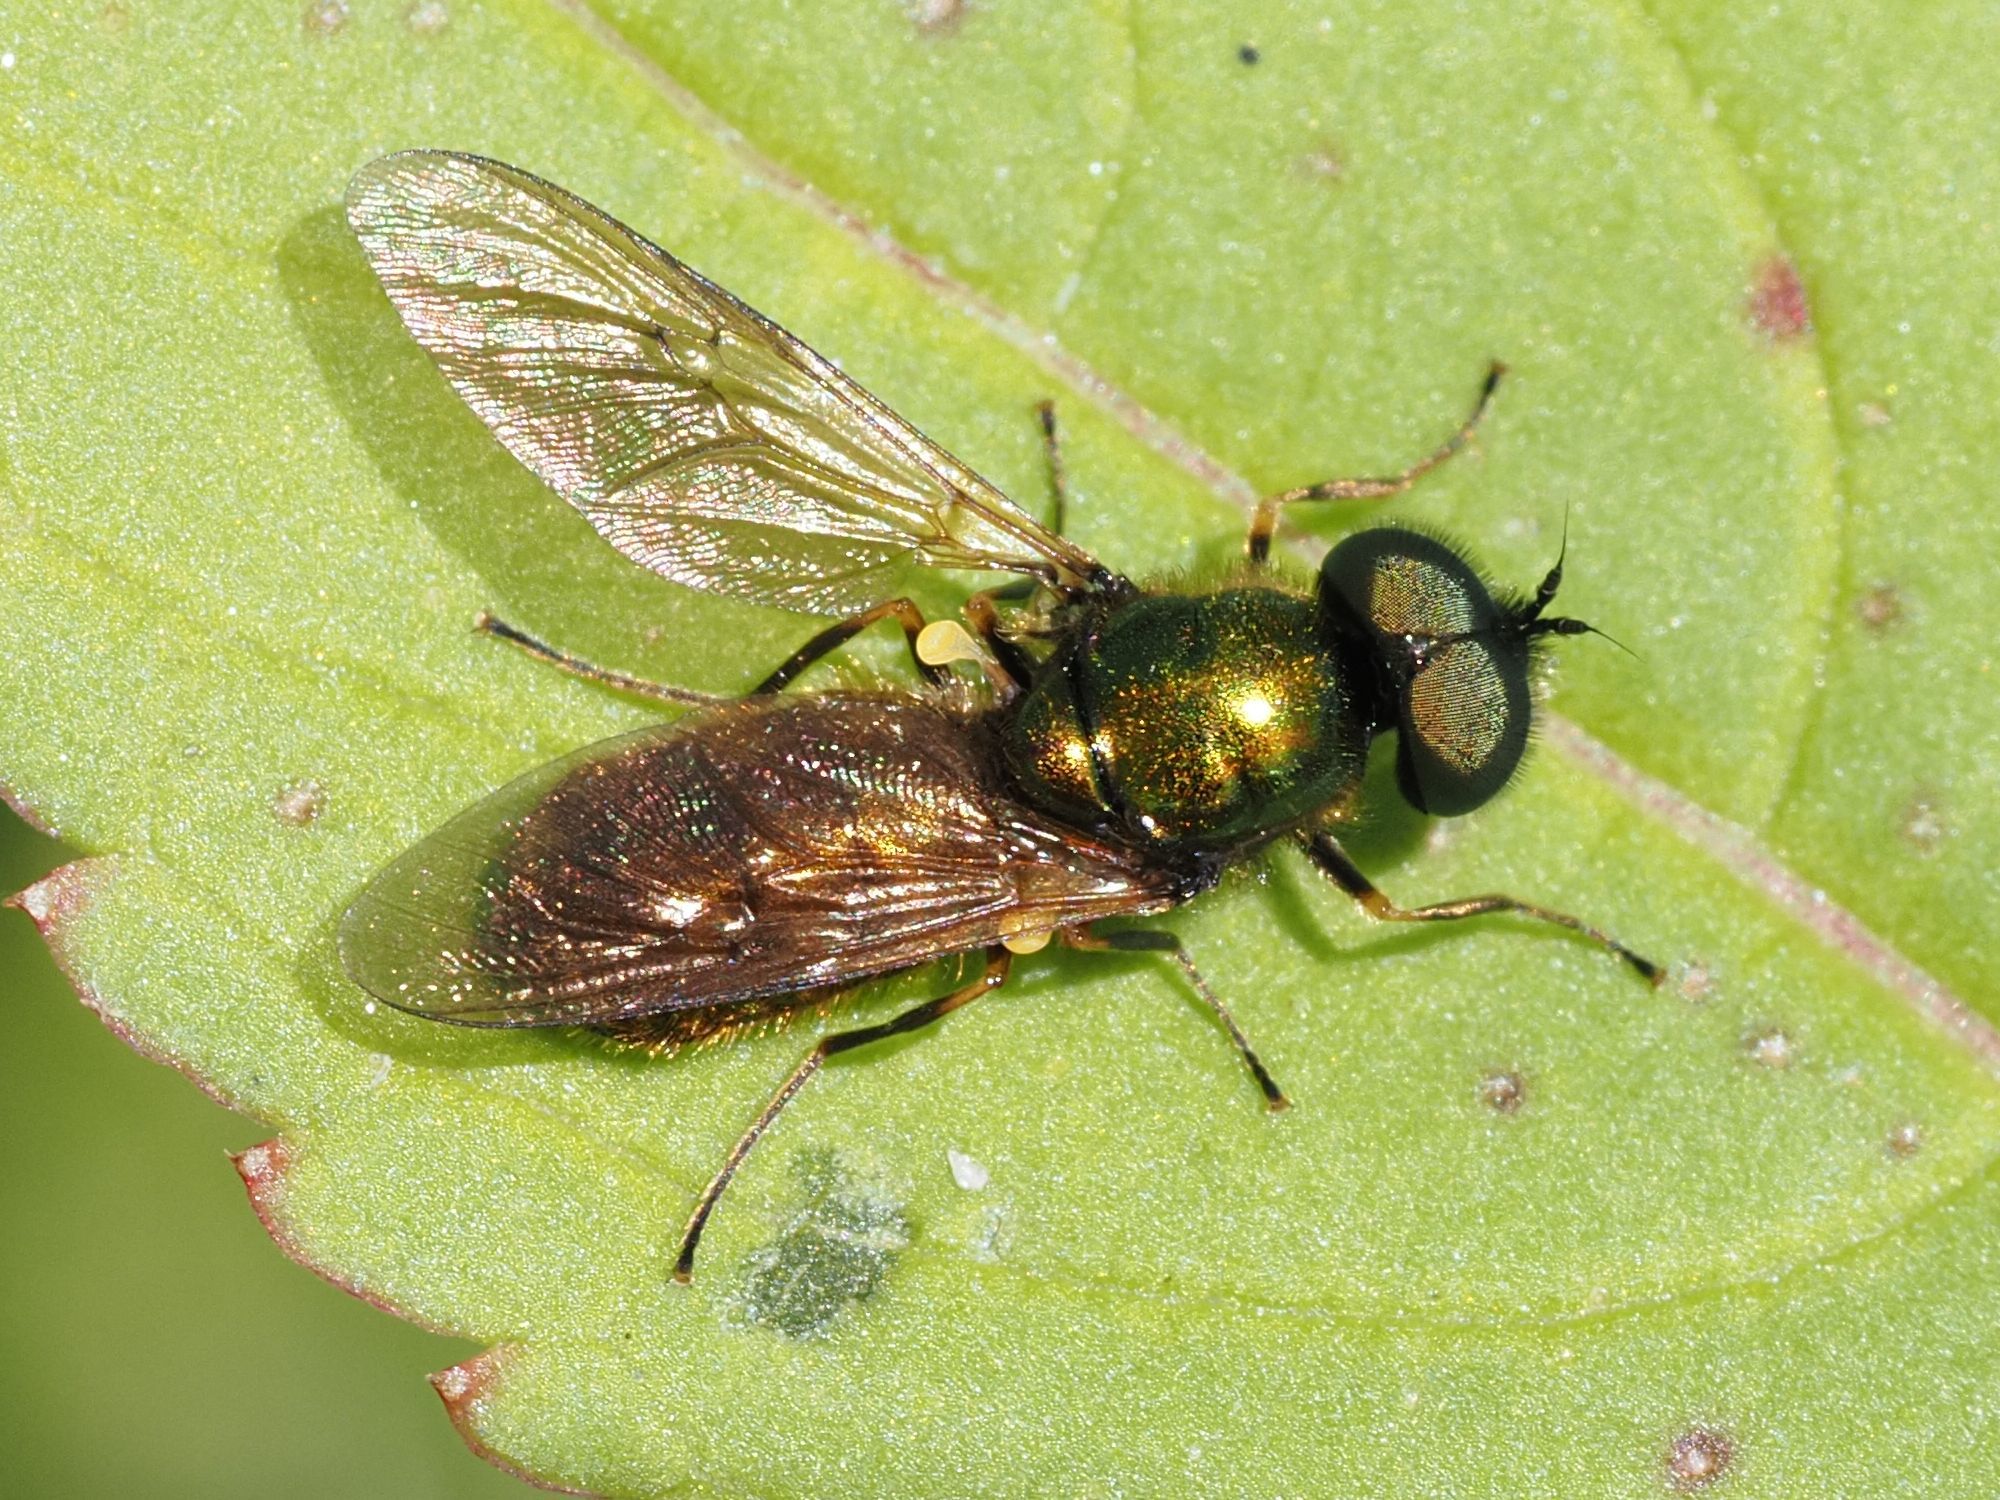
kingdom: Animalia
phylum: Arthropoda
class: Insecta
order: Diptera
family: Stratiomyidae
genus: Chloromyia
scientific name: Chloromyia formosa
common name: Soldier fly
